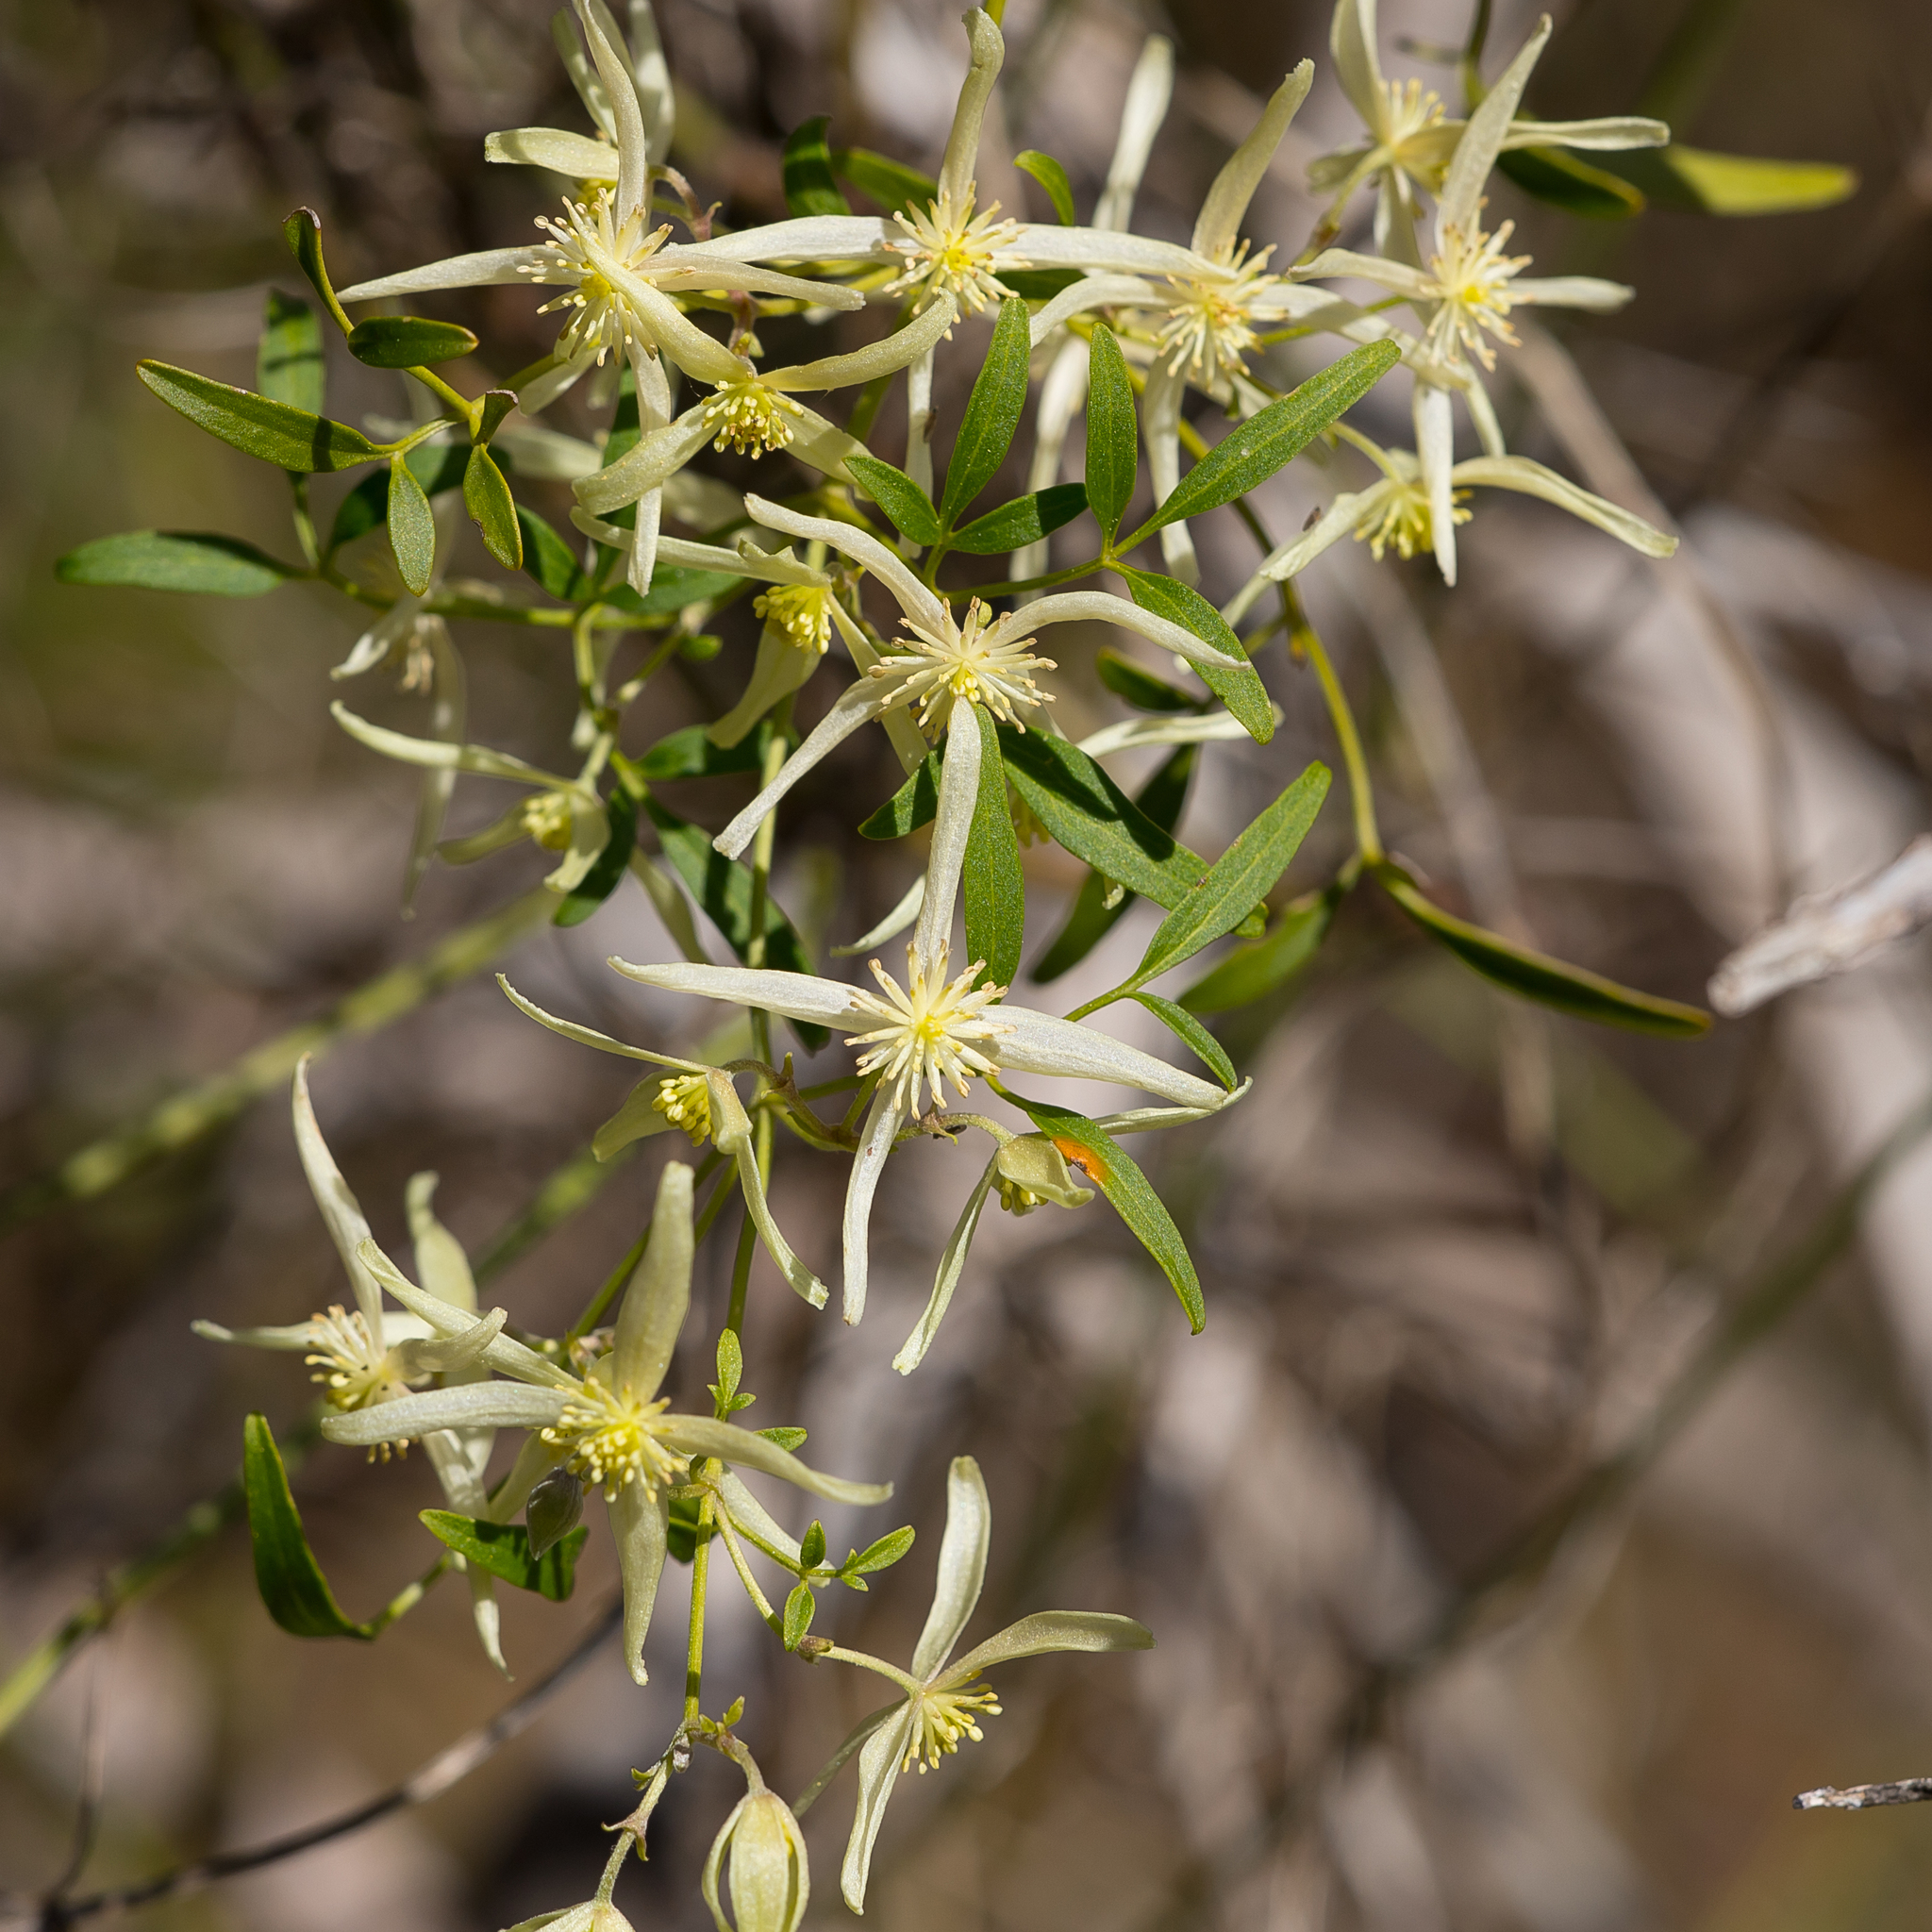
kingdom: Plantae
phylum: Tracheophyta
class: Magnoliopsida
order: Ranunculales
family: Ranunculaceae
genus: Clematis
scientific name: Clematis microphylla
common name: Headachevine
